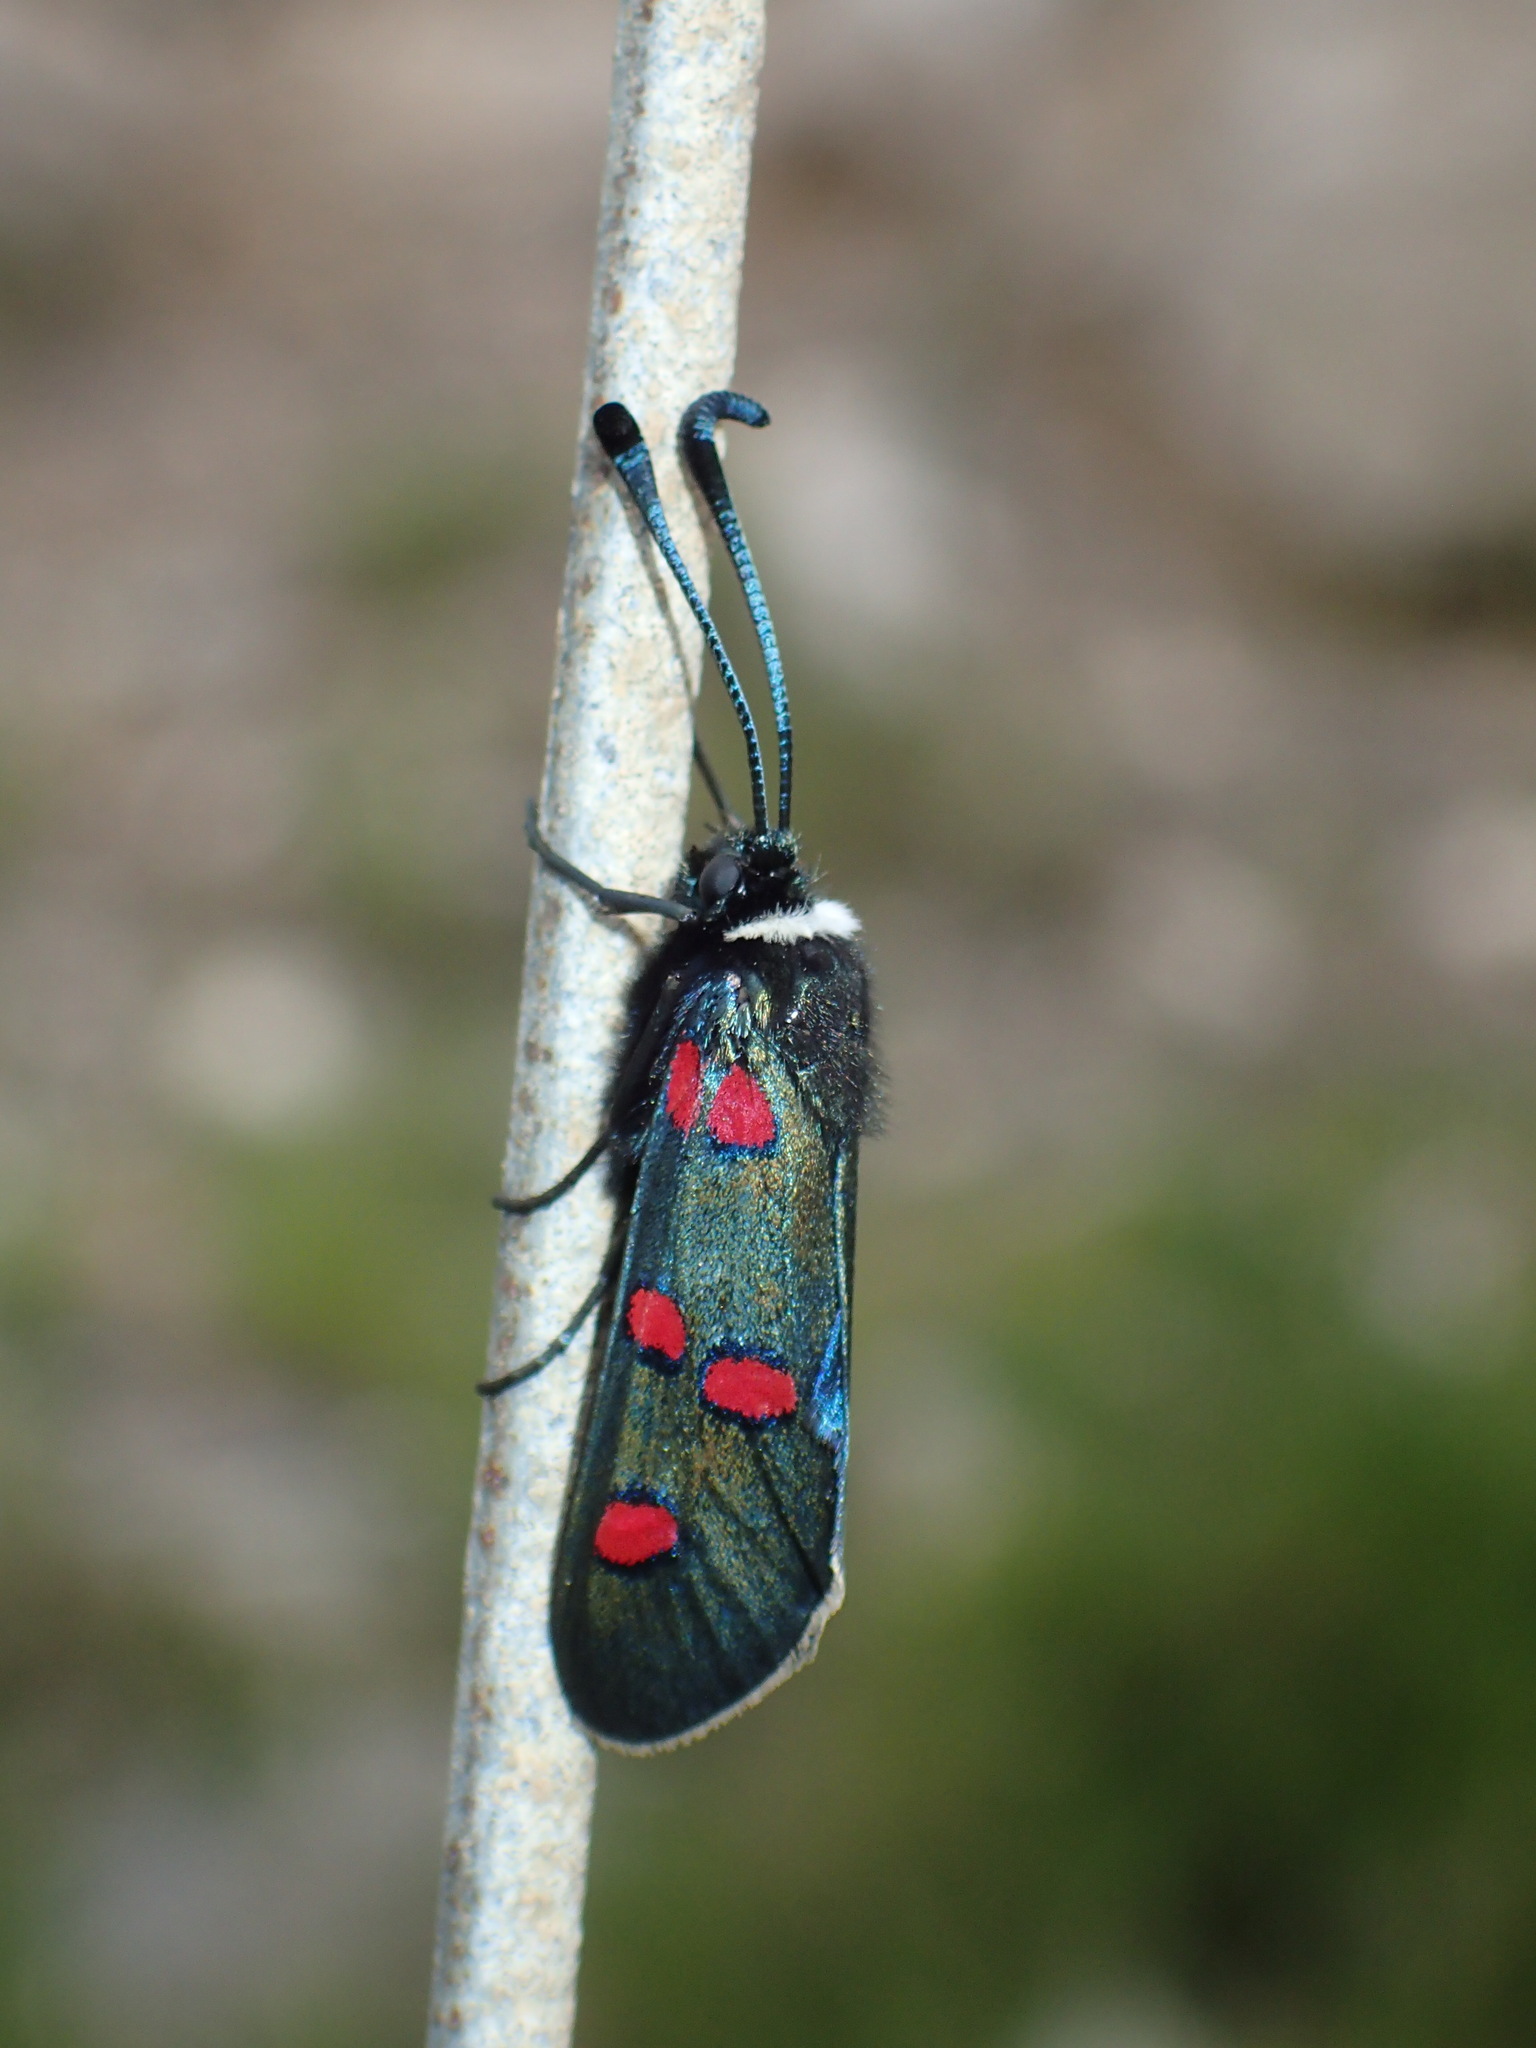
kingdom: Animalia
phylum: Arthropoda
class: Insecta
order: Lepidoptera
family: Zygaenidae
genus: Zygaena
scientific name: Zygaena lavandulae
